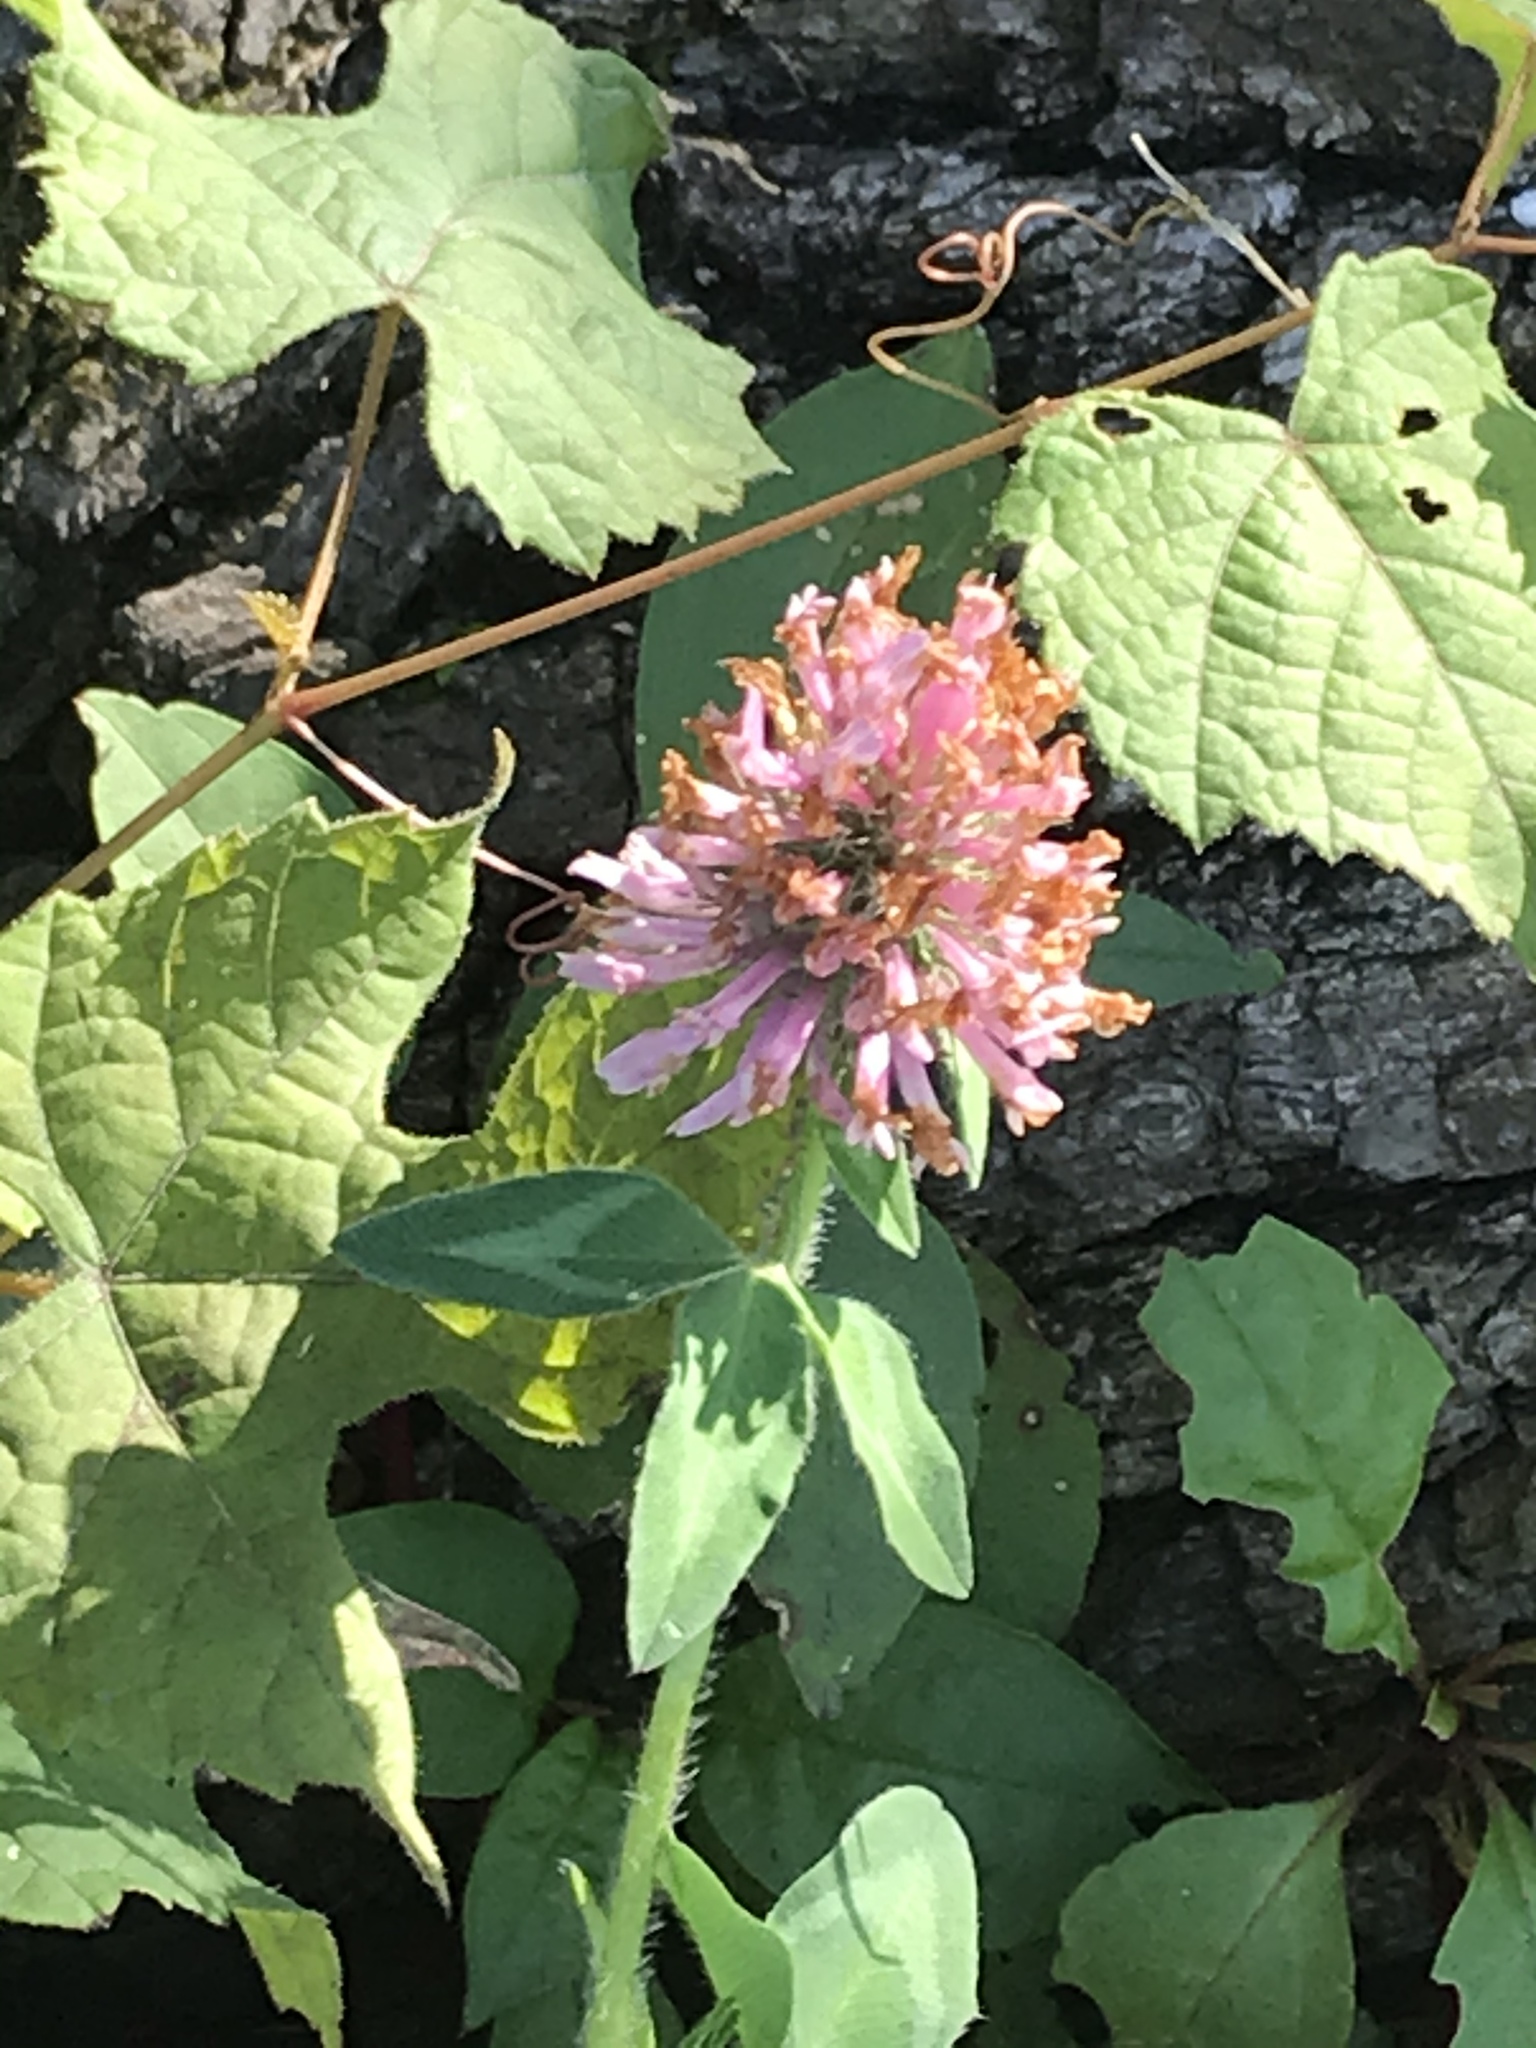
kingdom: Plantae
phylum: Tracheophyta
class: Magnoliopsida
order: Fabales
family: Fabaceae
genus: Trifolium
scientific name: Trifolium pratense
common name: Red clover
